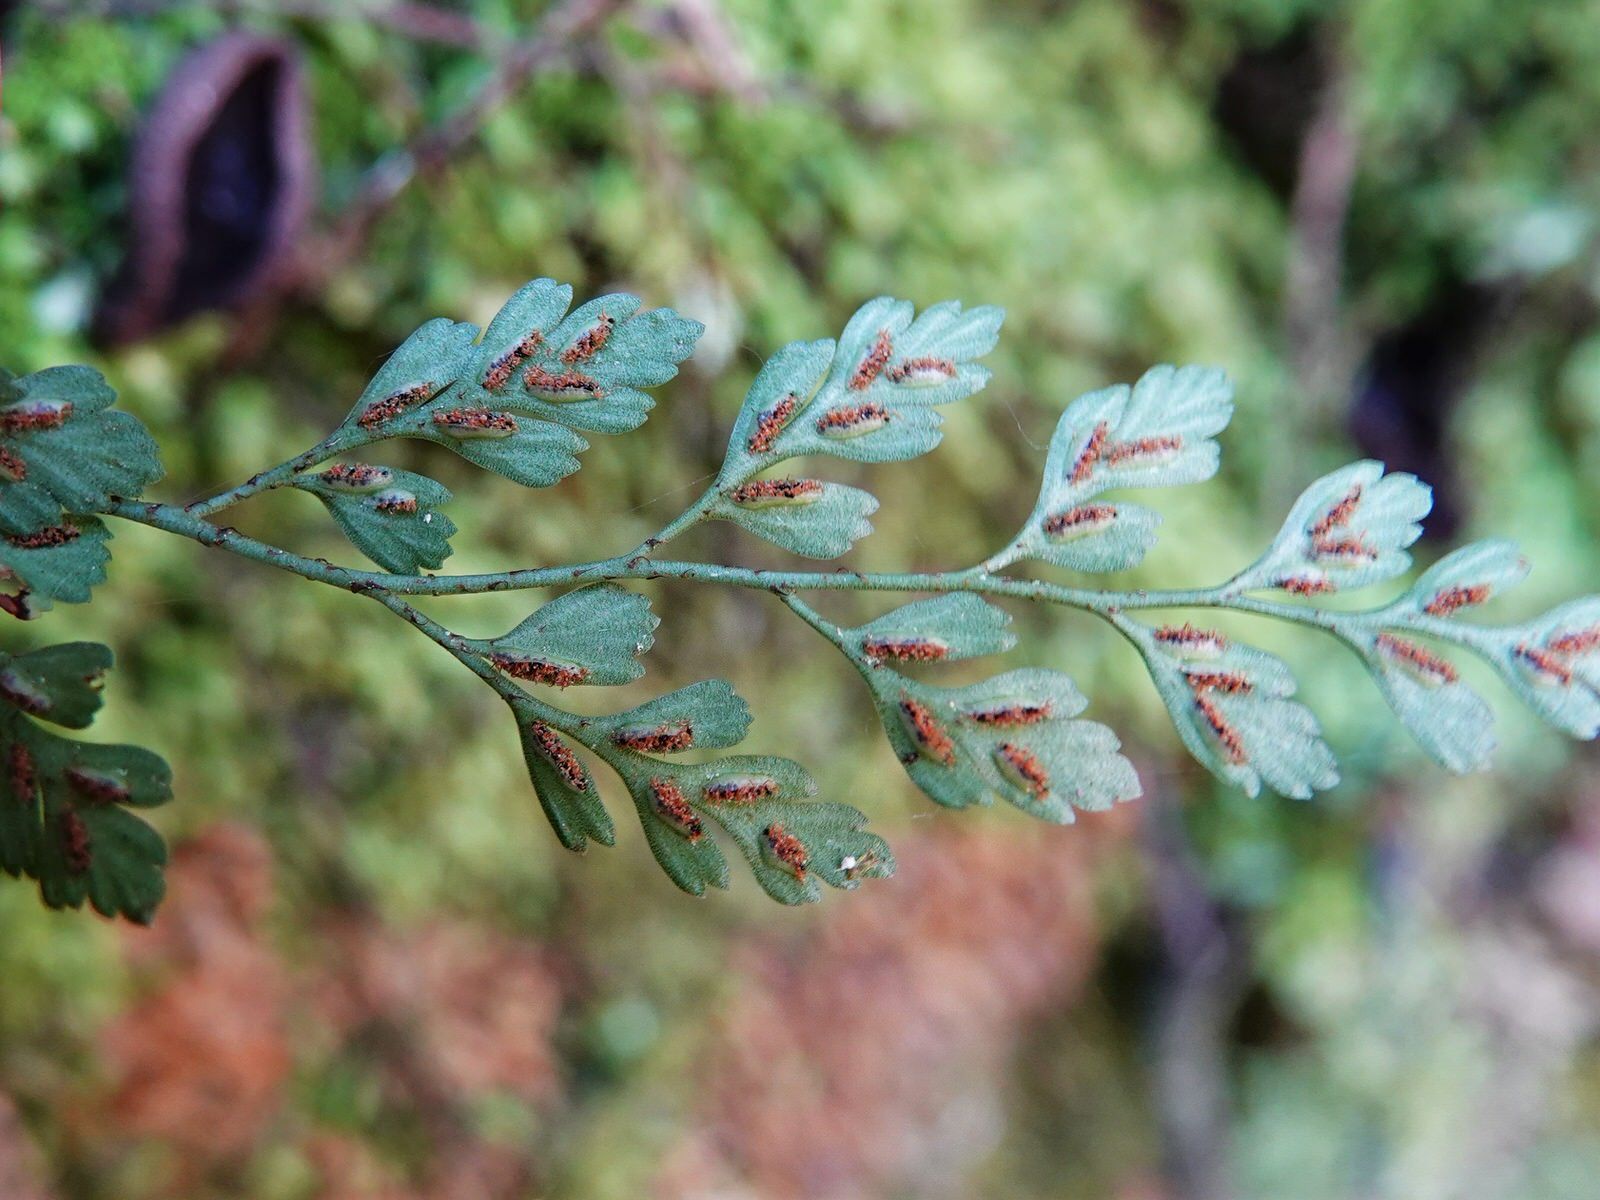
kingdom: Plantae
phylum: Tracheophyta
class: Polypodiopsida
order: Polypodiales
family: Aspleniaceae
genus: Asplenium
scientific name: Asplenium hookerianum
